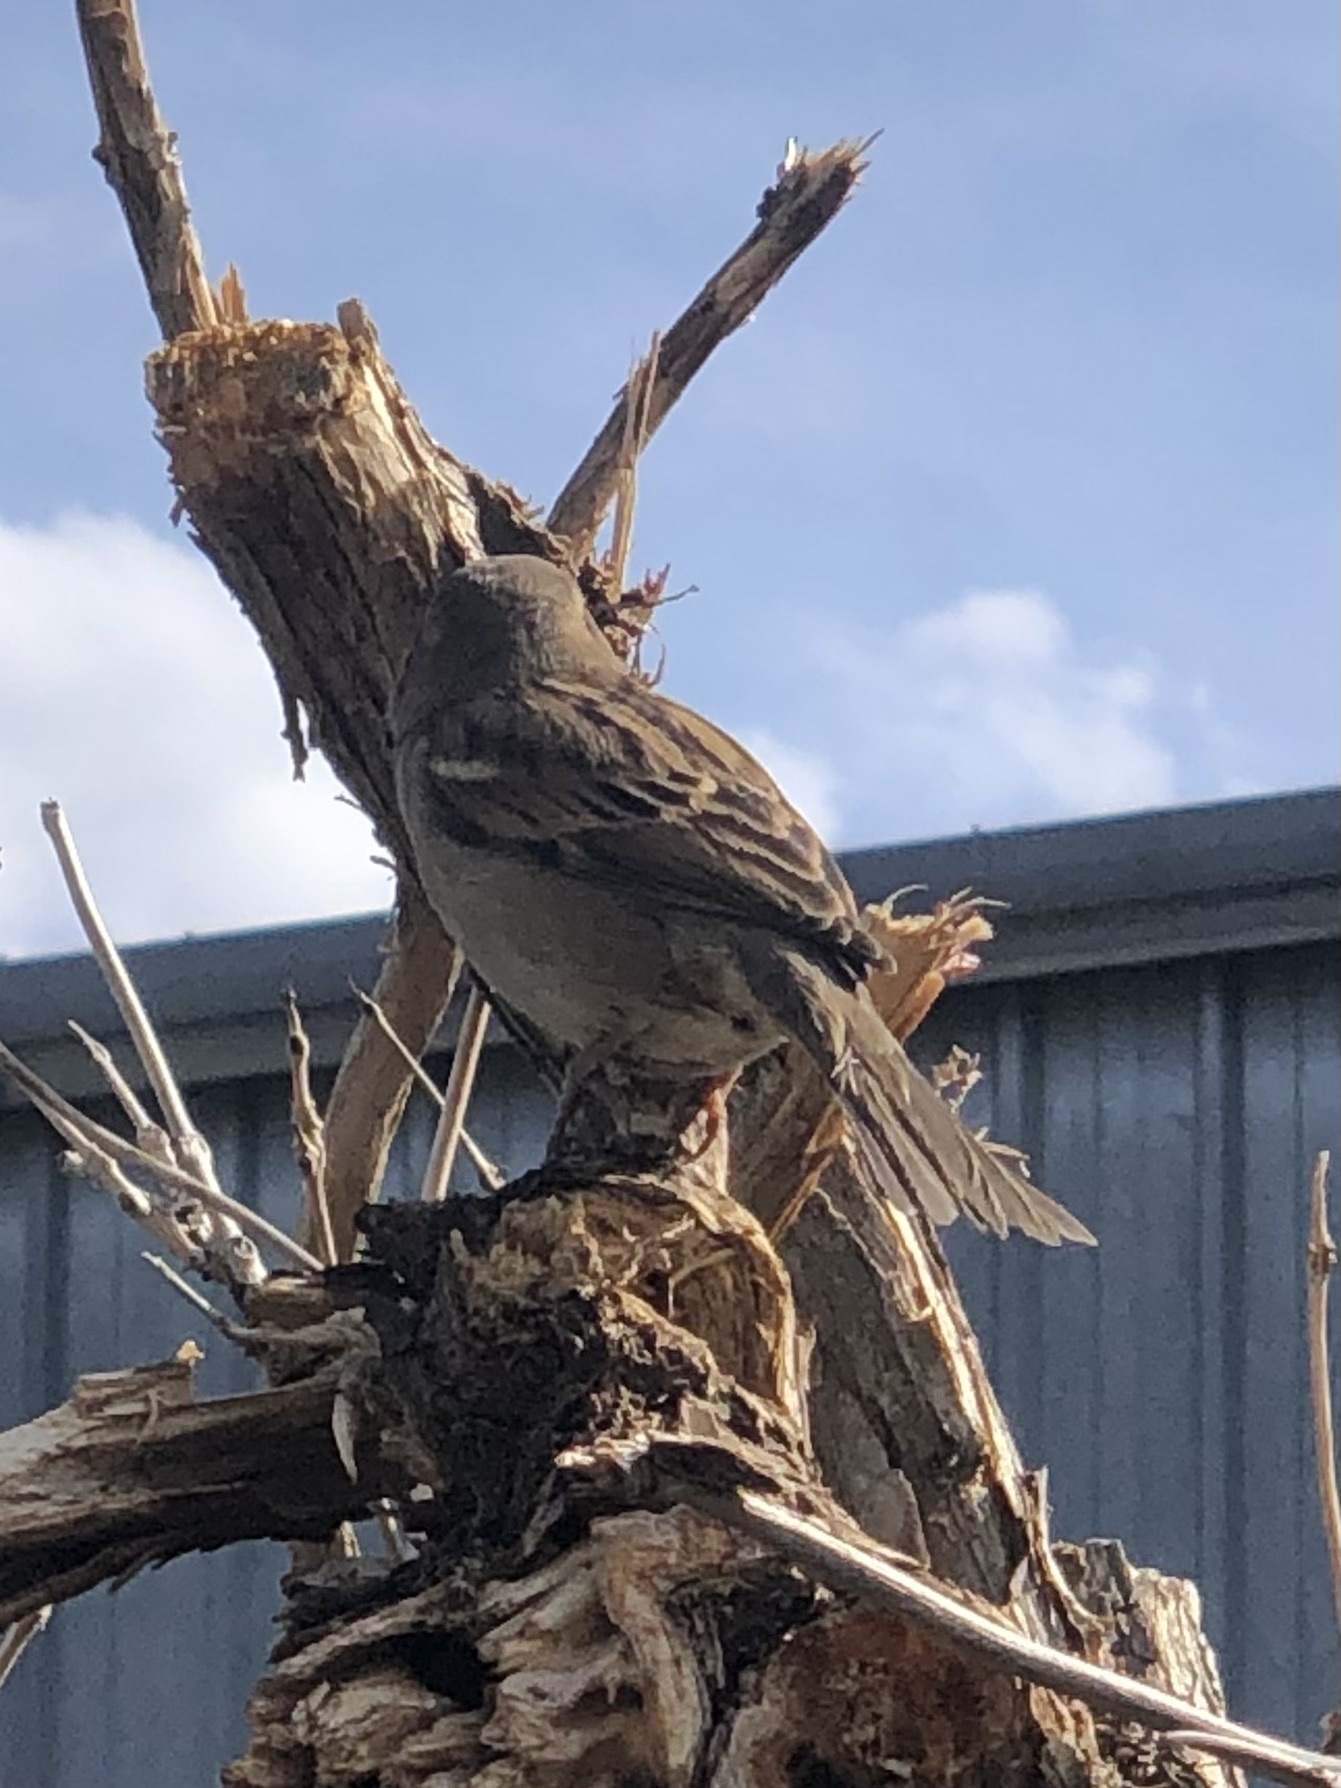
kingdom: Animalia
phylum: Chordata
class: Aves
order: Passeriformes
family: Passeridae
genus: Passer
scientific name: Passer domesticus
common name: House sparrow
